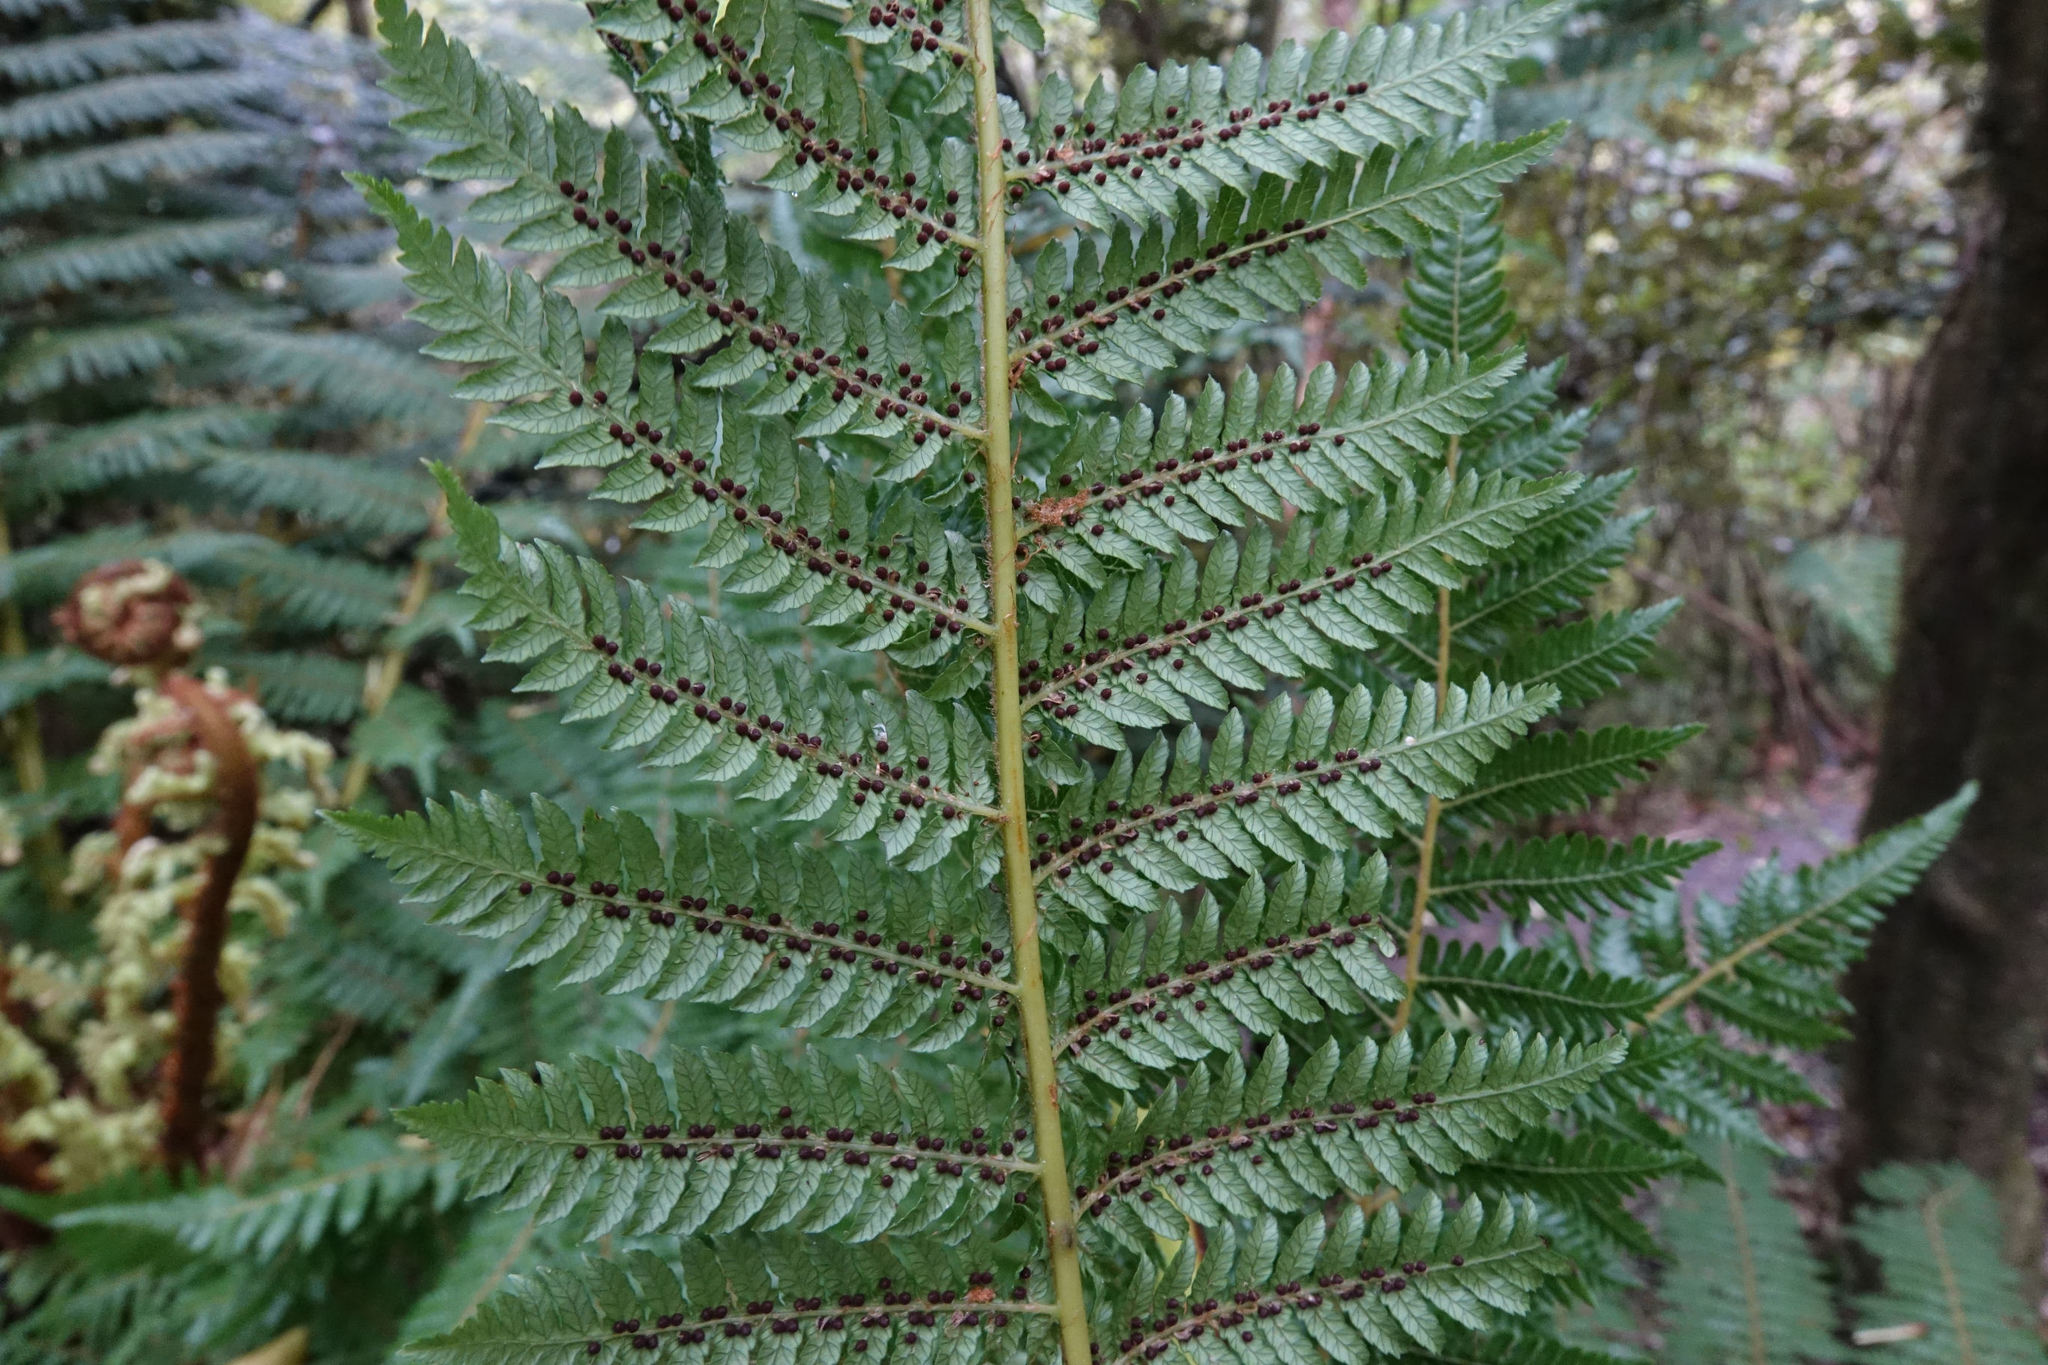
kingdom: Plantae
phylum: Tracheophyta
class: Polypodiopsida
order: Cyatheales
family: Cyatheaceae
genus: Alsophila
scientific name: Alsophila smithii
